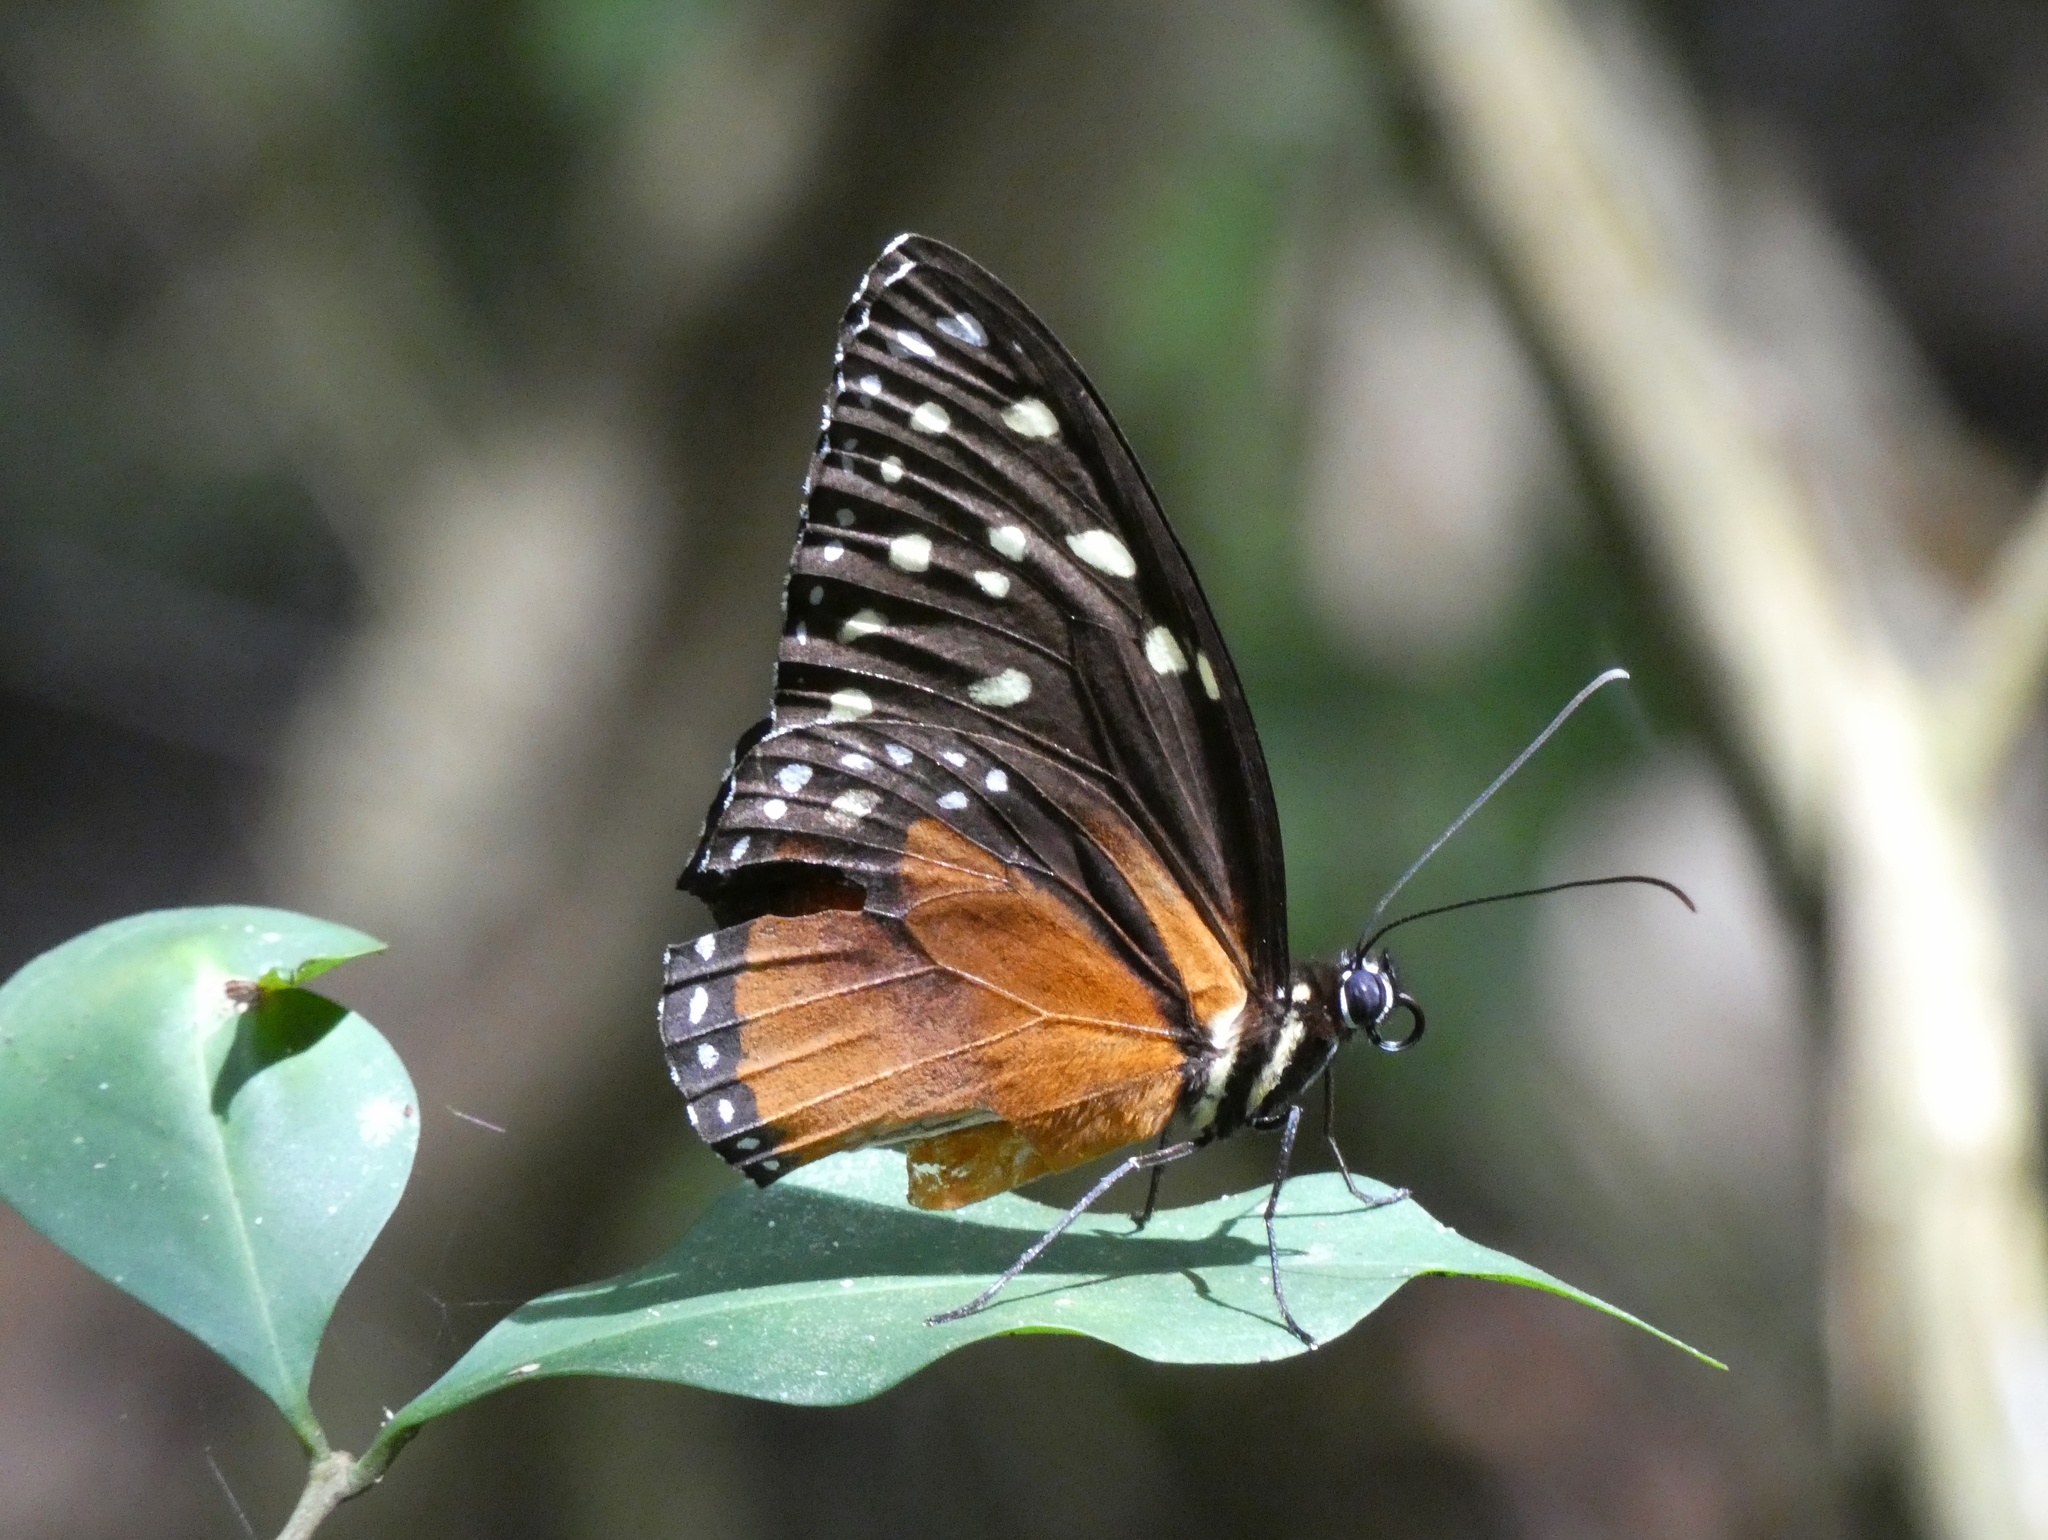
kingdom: Animalia
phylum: Arthropoda
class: Insecta
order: Lepidoptera
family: Nymphalidae
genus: Tithorea
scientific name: Tithorea tarricina
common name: Cream-spotted tigerwing
